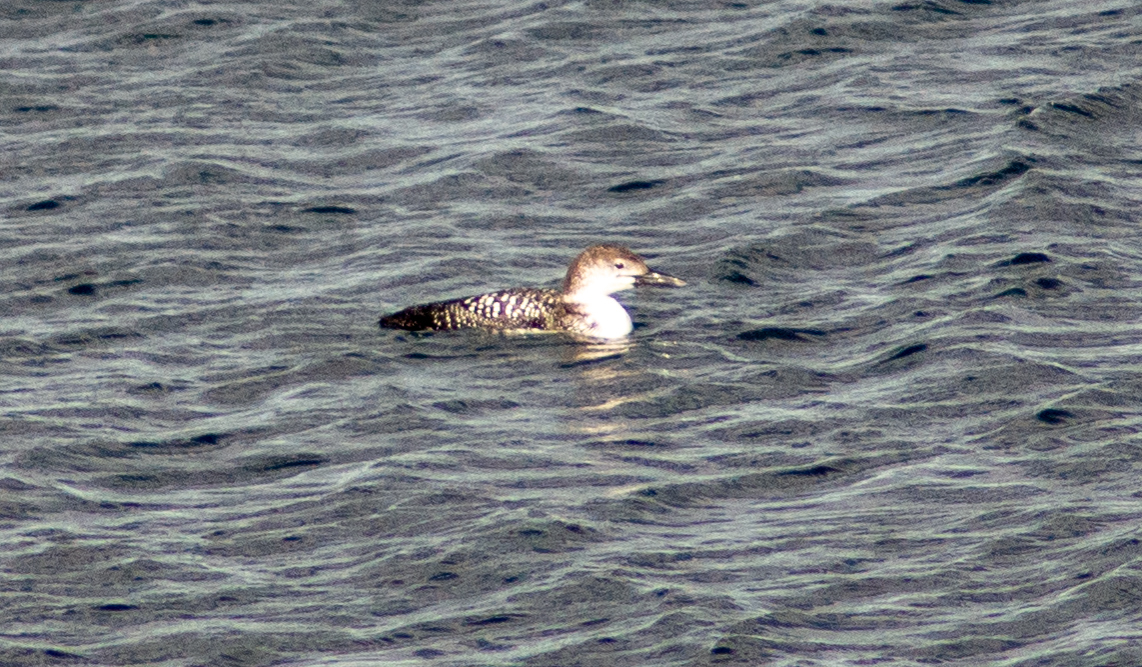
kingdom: Animalia
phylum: Chordata
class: Aves
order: Gaviiformes
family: Gaviidae
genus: Gavia
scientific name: Gavia immer
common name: Common loon
